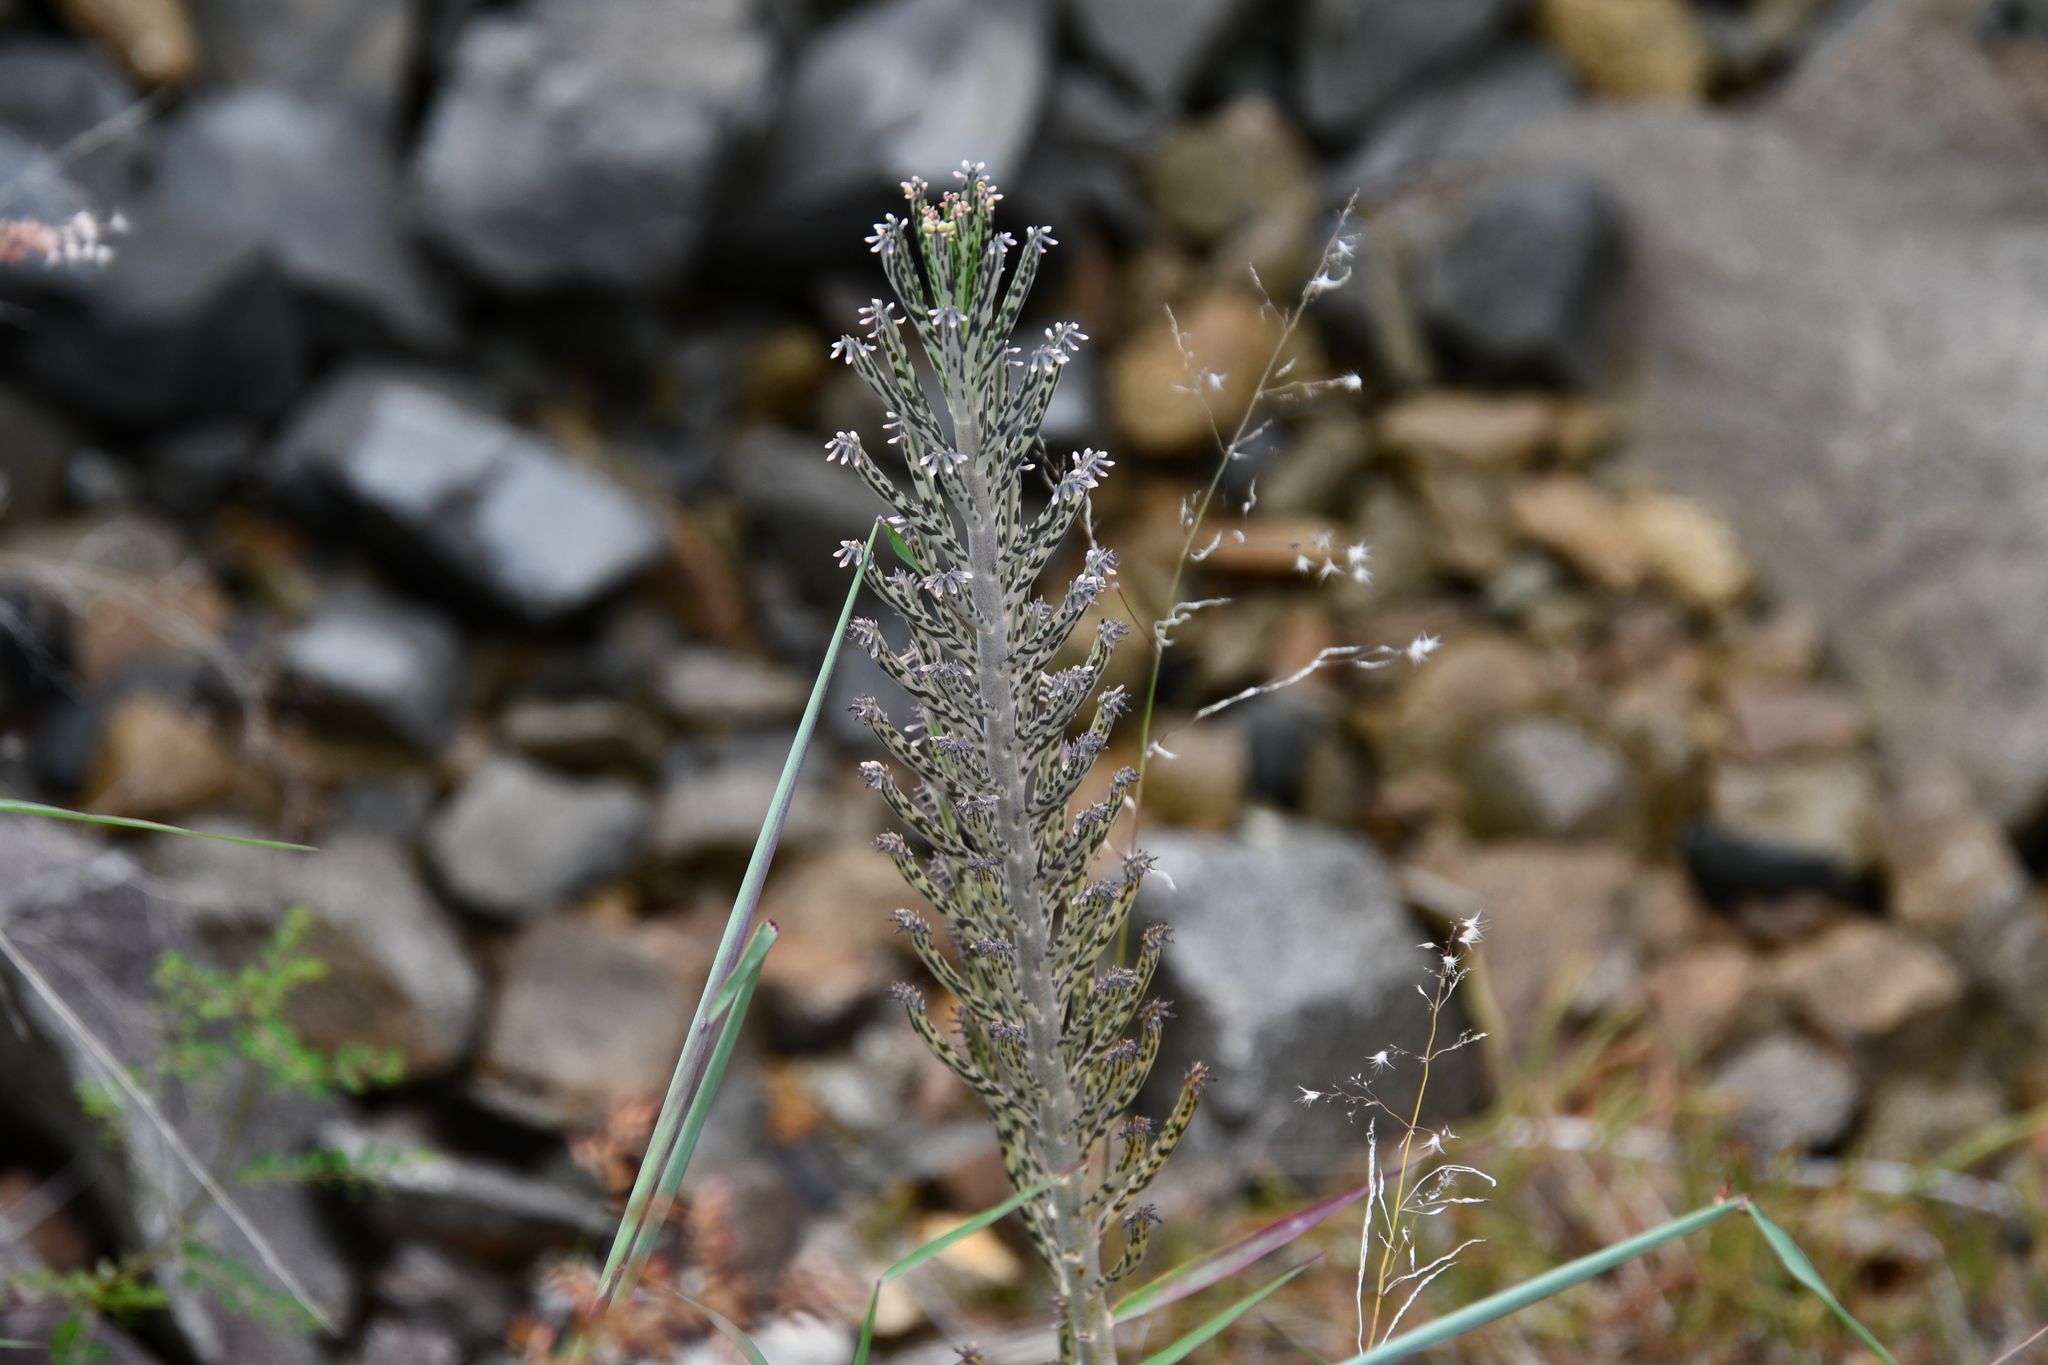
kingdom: Plantae
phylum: Tracheophyta
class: Magnoliopsida
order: Saxifragales
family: Crassulaceae
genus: Kalanchoe
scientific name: Kalanchoe delagoensis
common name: Chandelier plant
